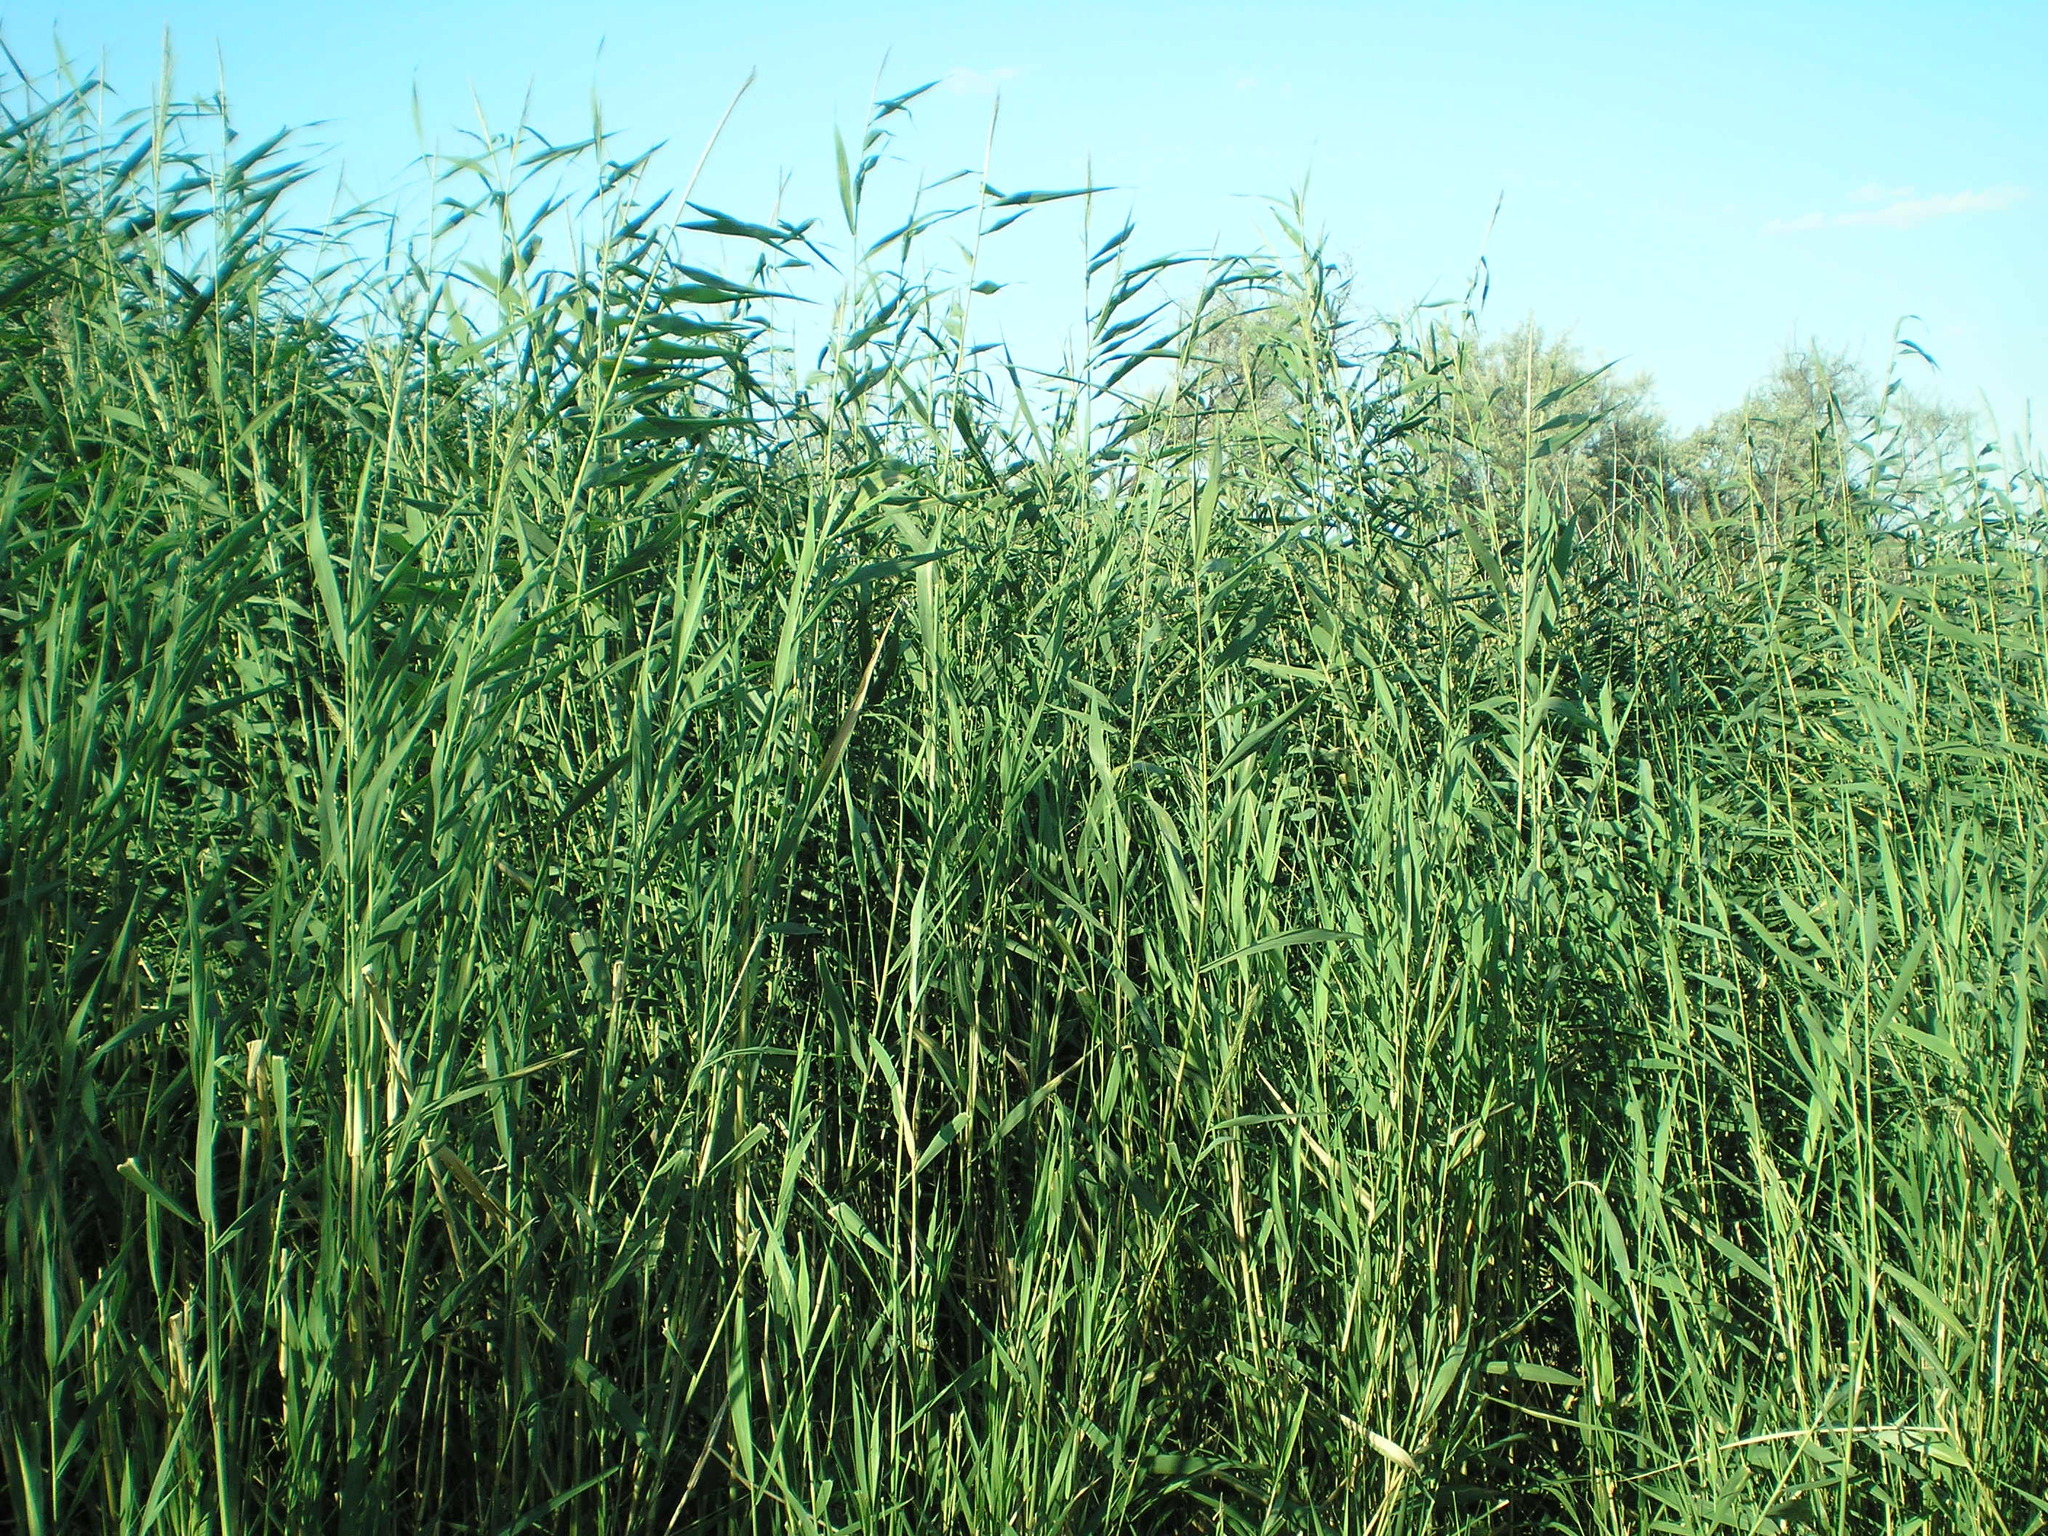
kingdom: Plantae
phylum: Tracheophyta
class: Liliopsida
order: Poales
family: Poaceae
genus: Phragmites
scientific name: Phragmites australis
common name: Common reed
